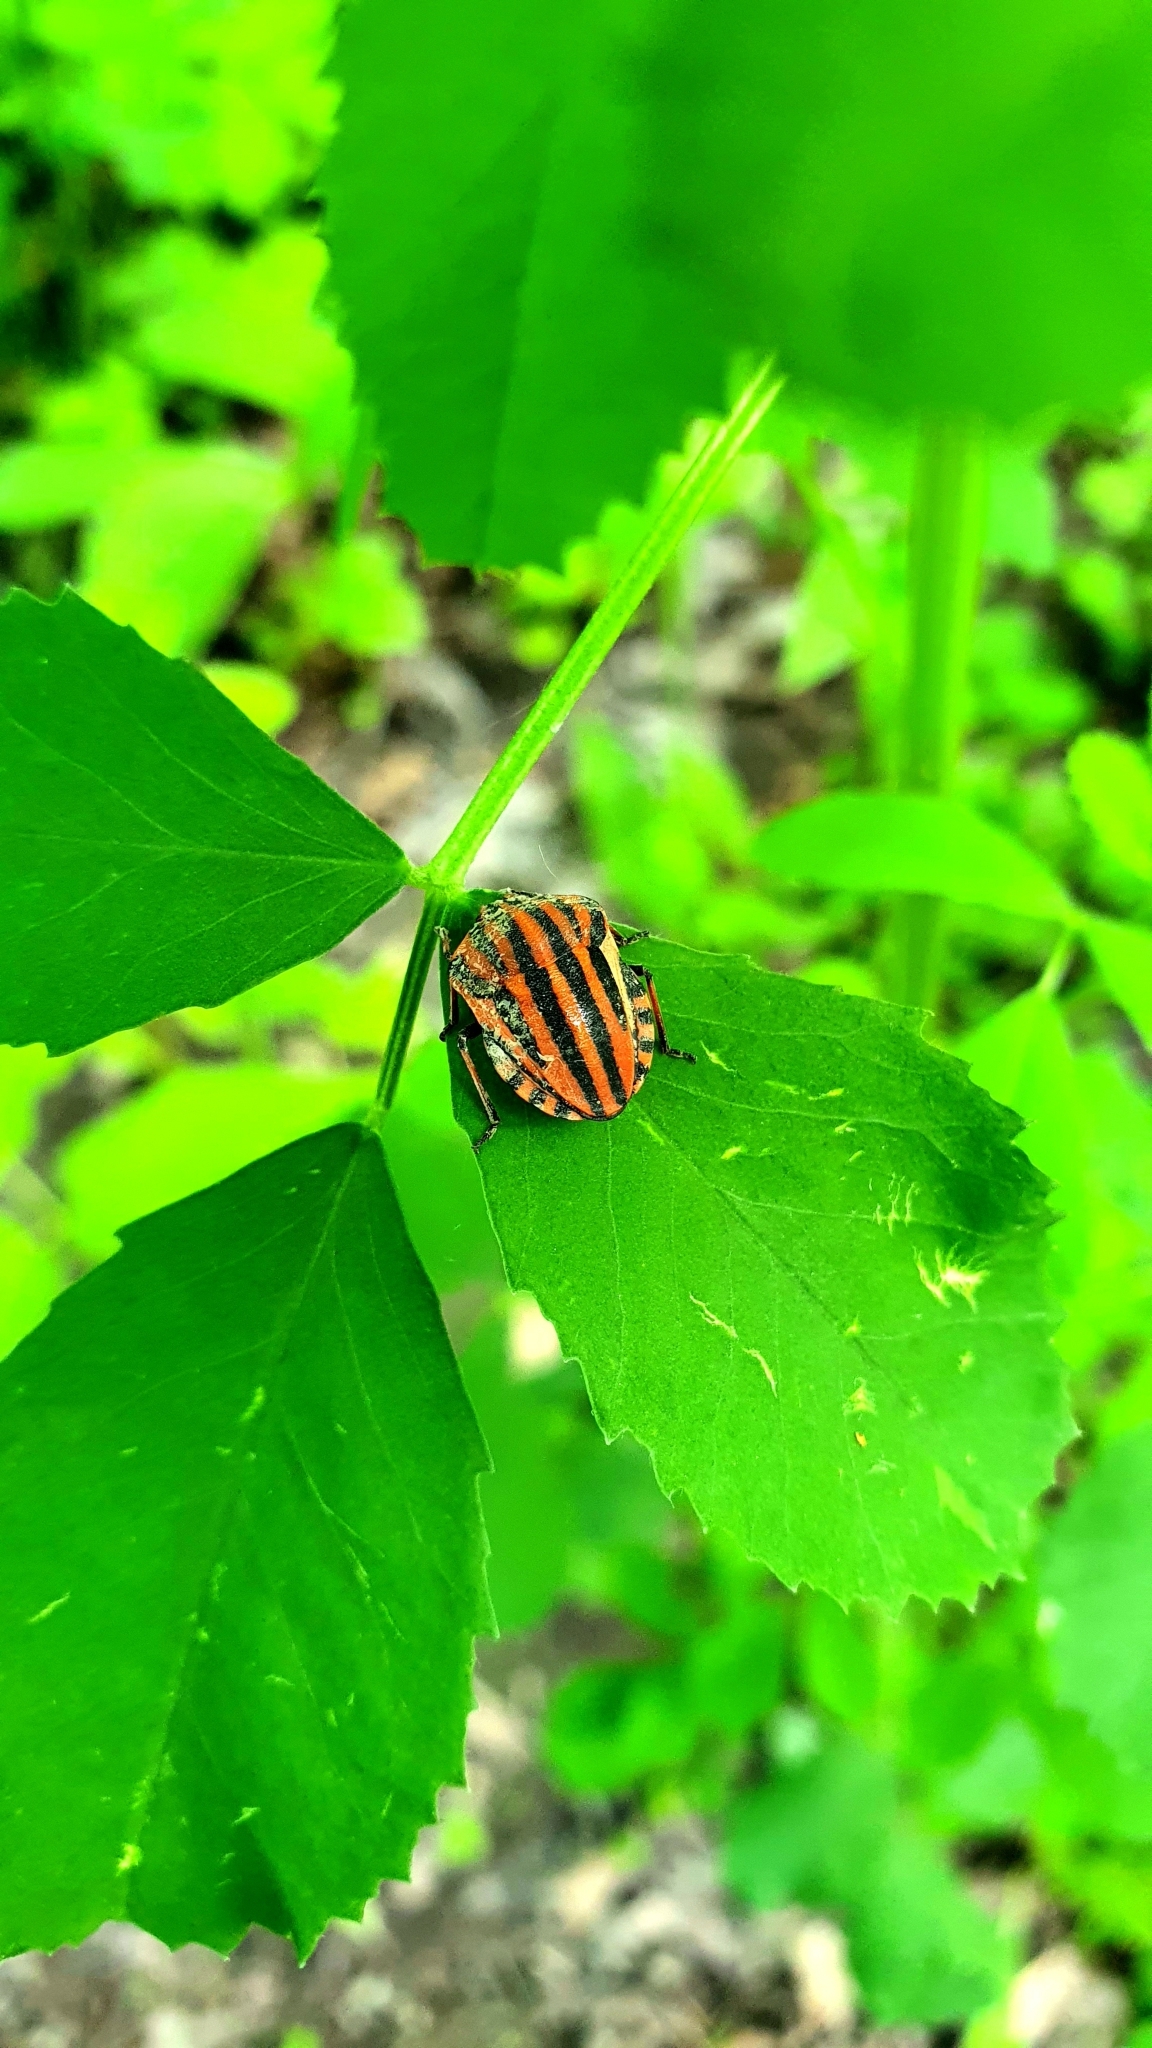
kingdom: Animalia
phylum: Arthropoda
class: Insecta
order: Hemiptera
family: Pentatomidae
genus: Graphosoma
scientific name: Graphosoma italicum
